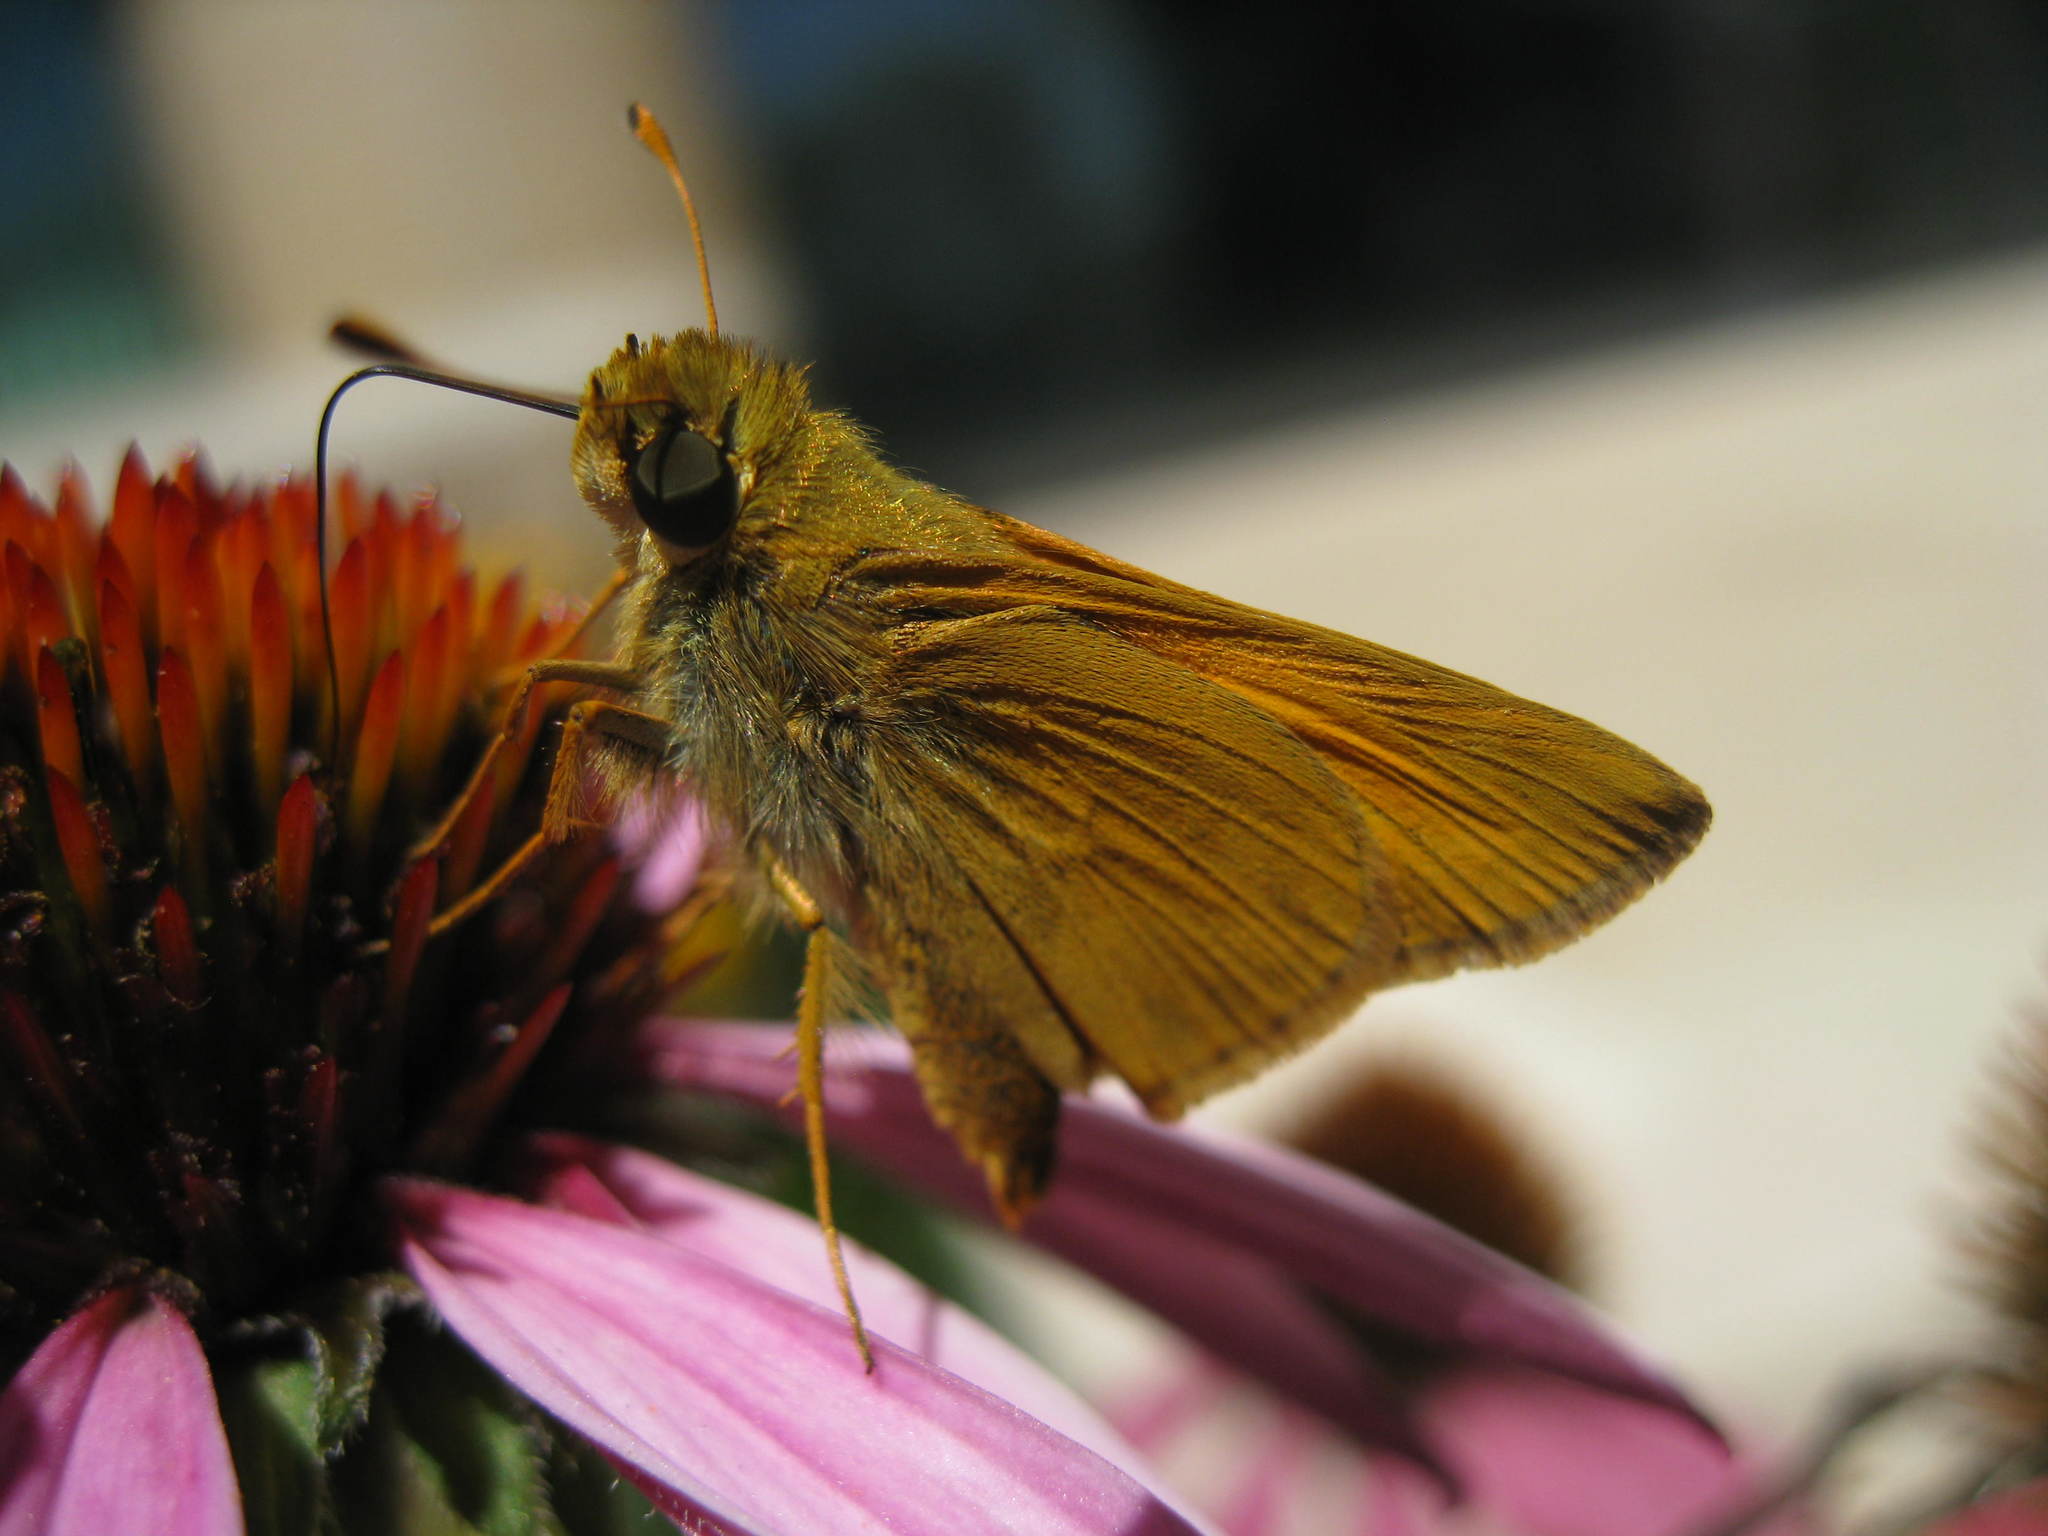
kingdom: Animalia
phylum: Arthropoda
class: Insecta
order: Lepidoptera
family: Hesperiidae
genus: Atalopedes
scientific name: Atalopedes
